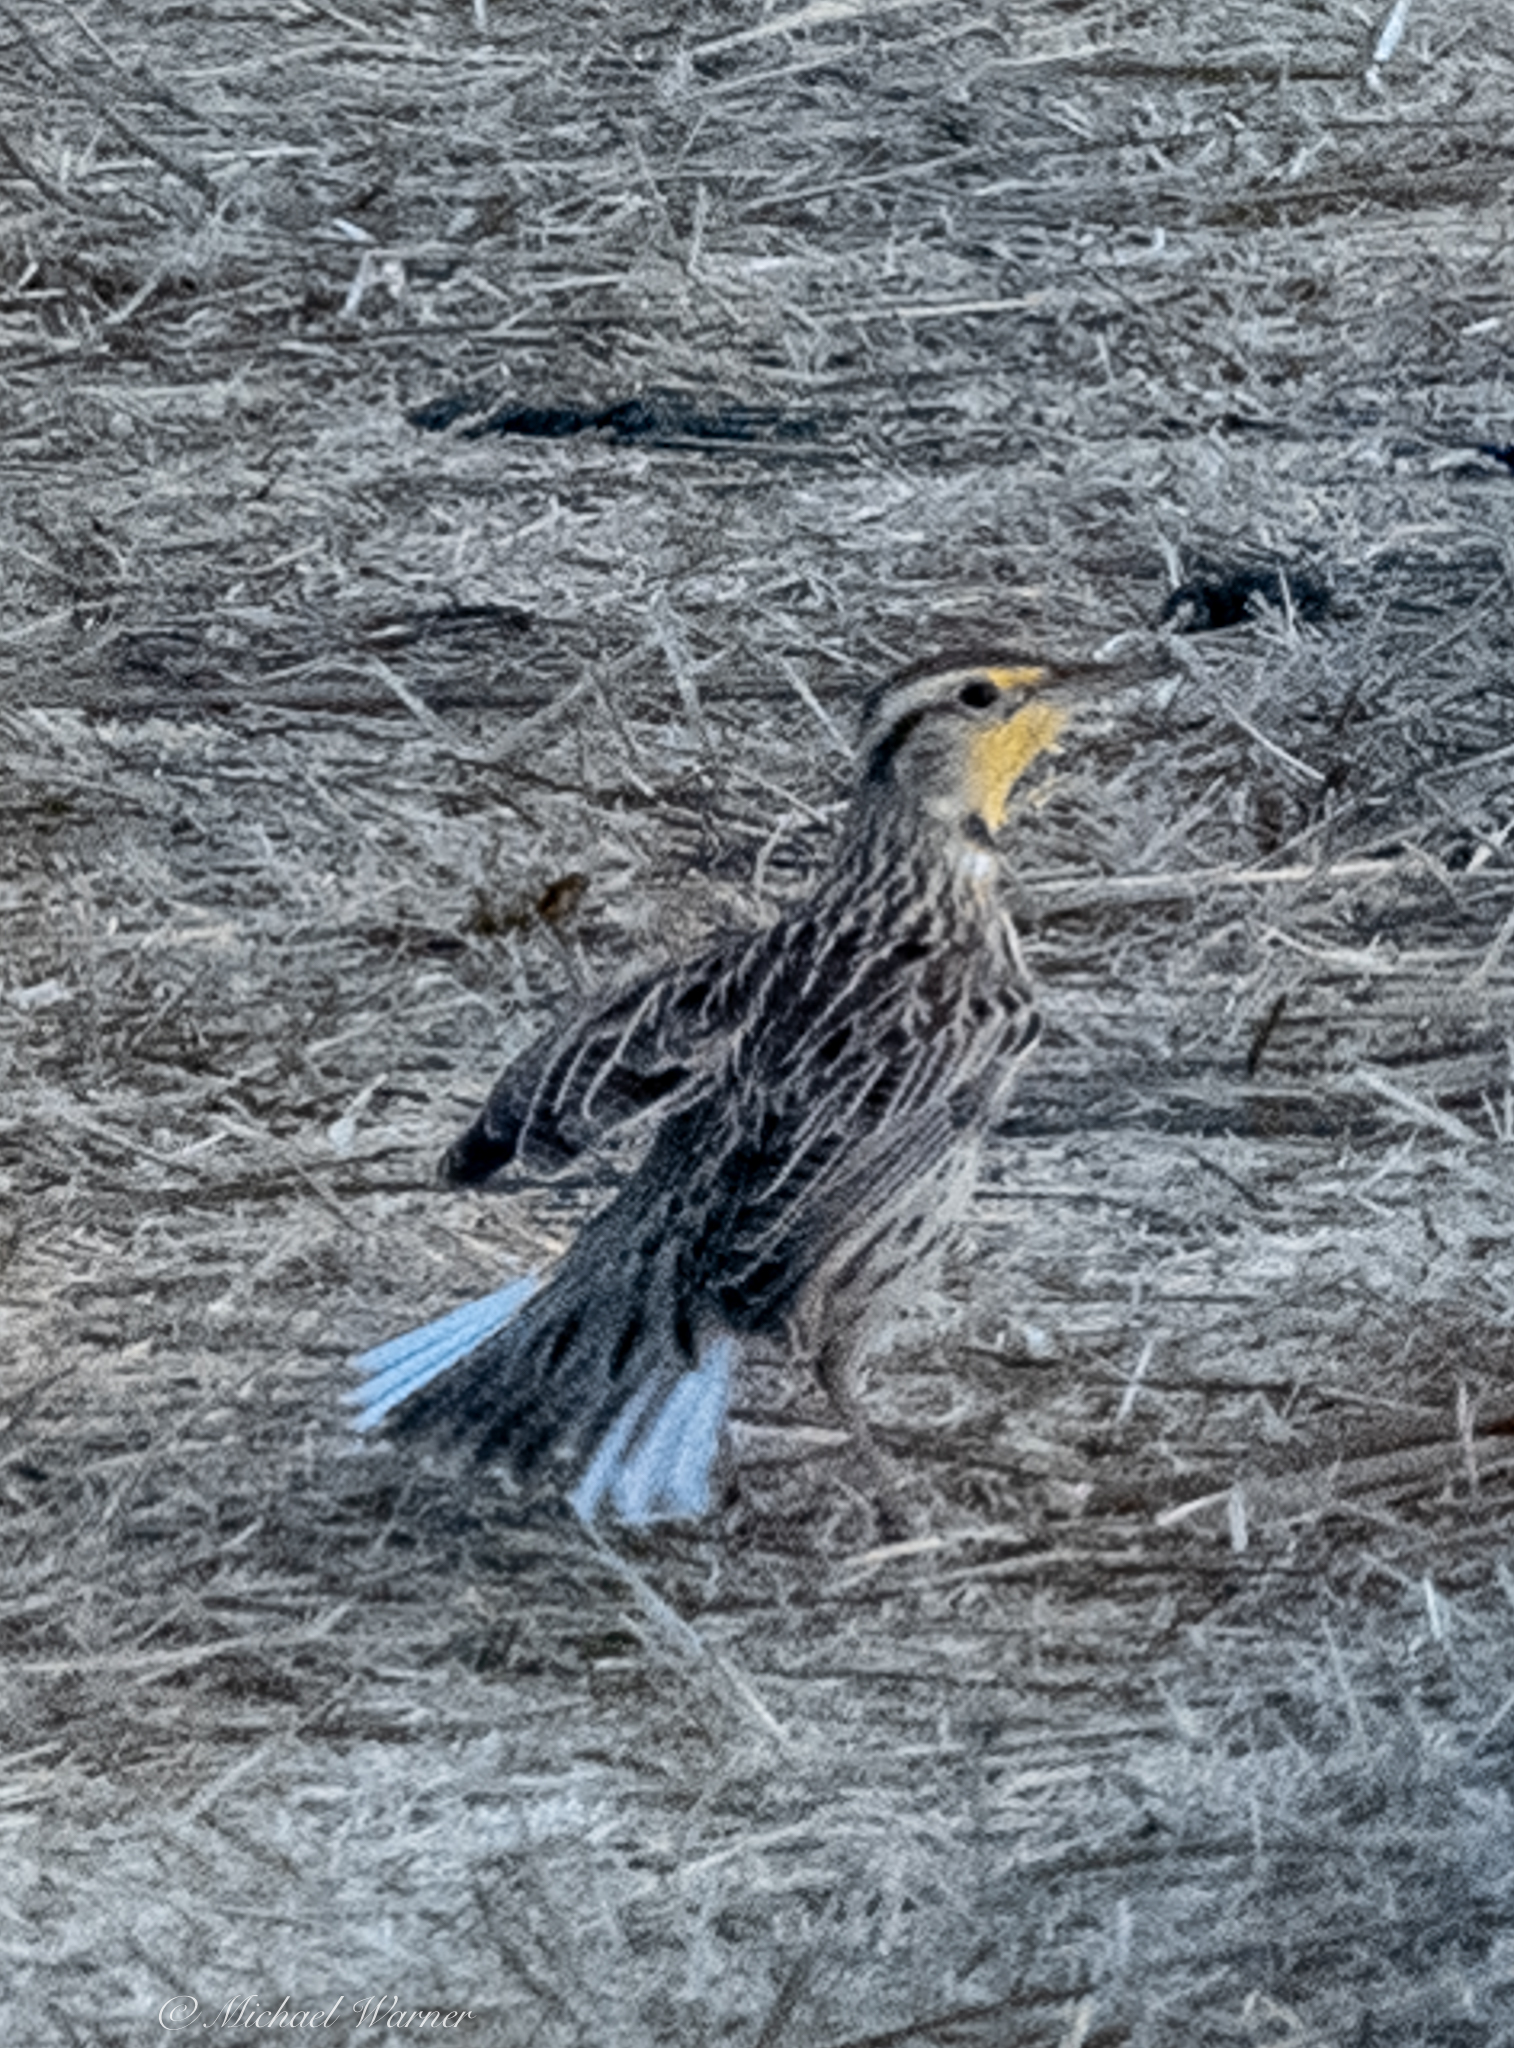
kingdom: Animalia
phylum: Chordata
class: Aves
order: Passeriformes
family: Icteridae
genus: Sturnella
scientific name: Sturnella neglecta
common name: Western meadowlark
